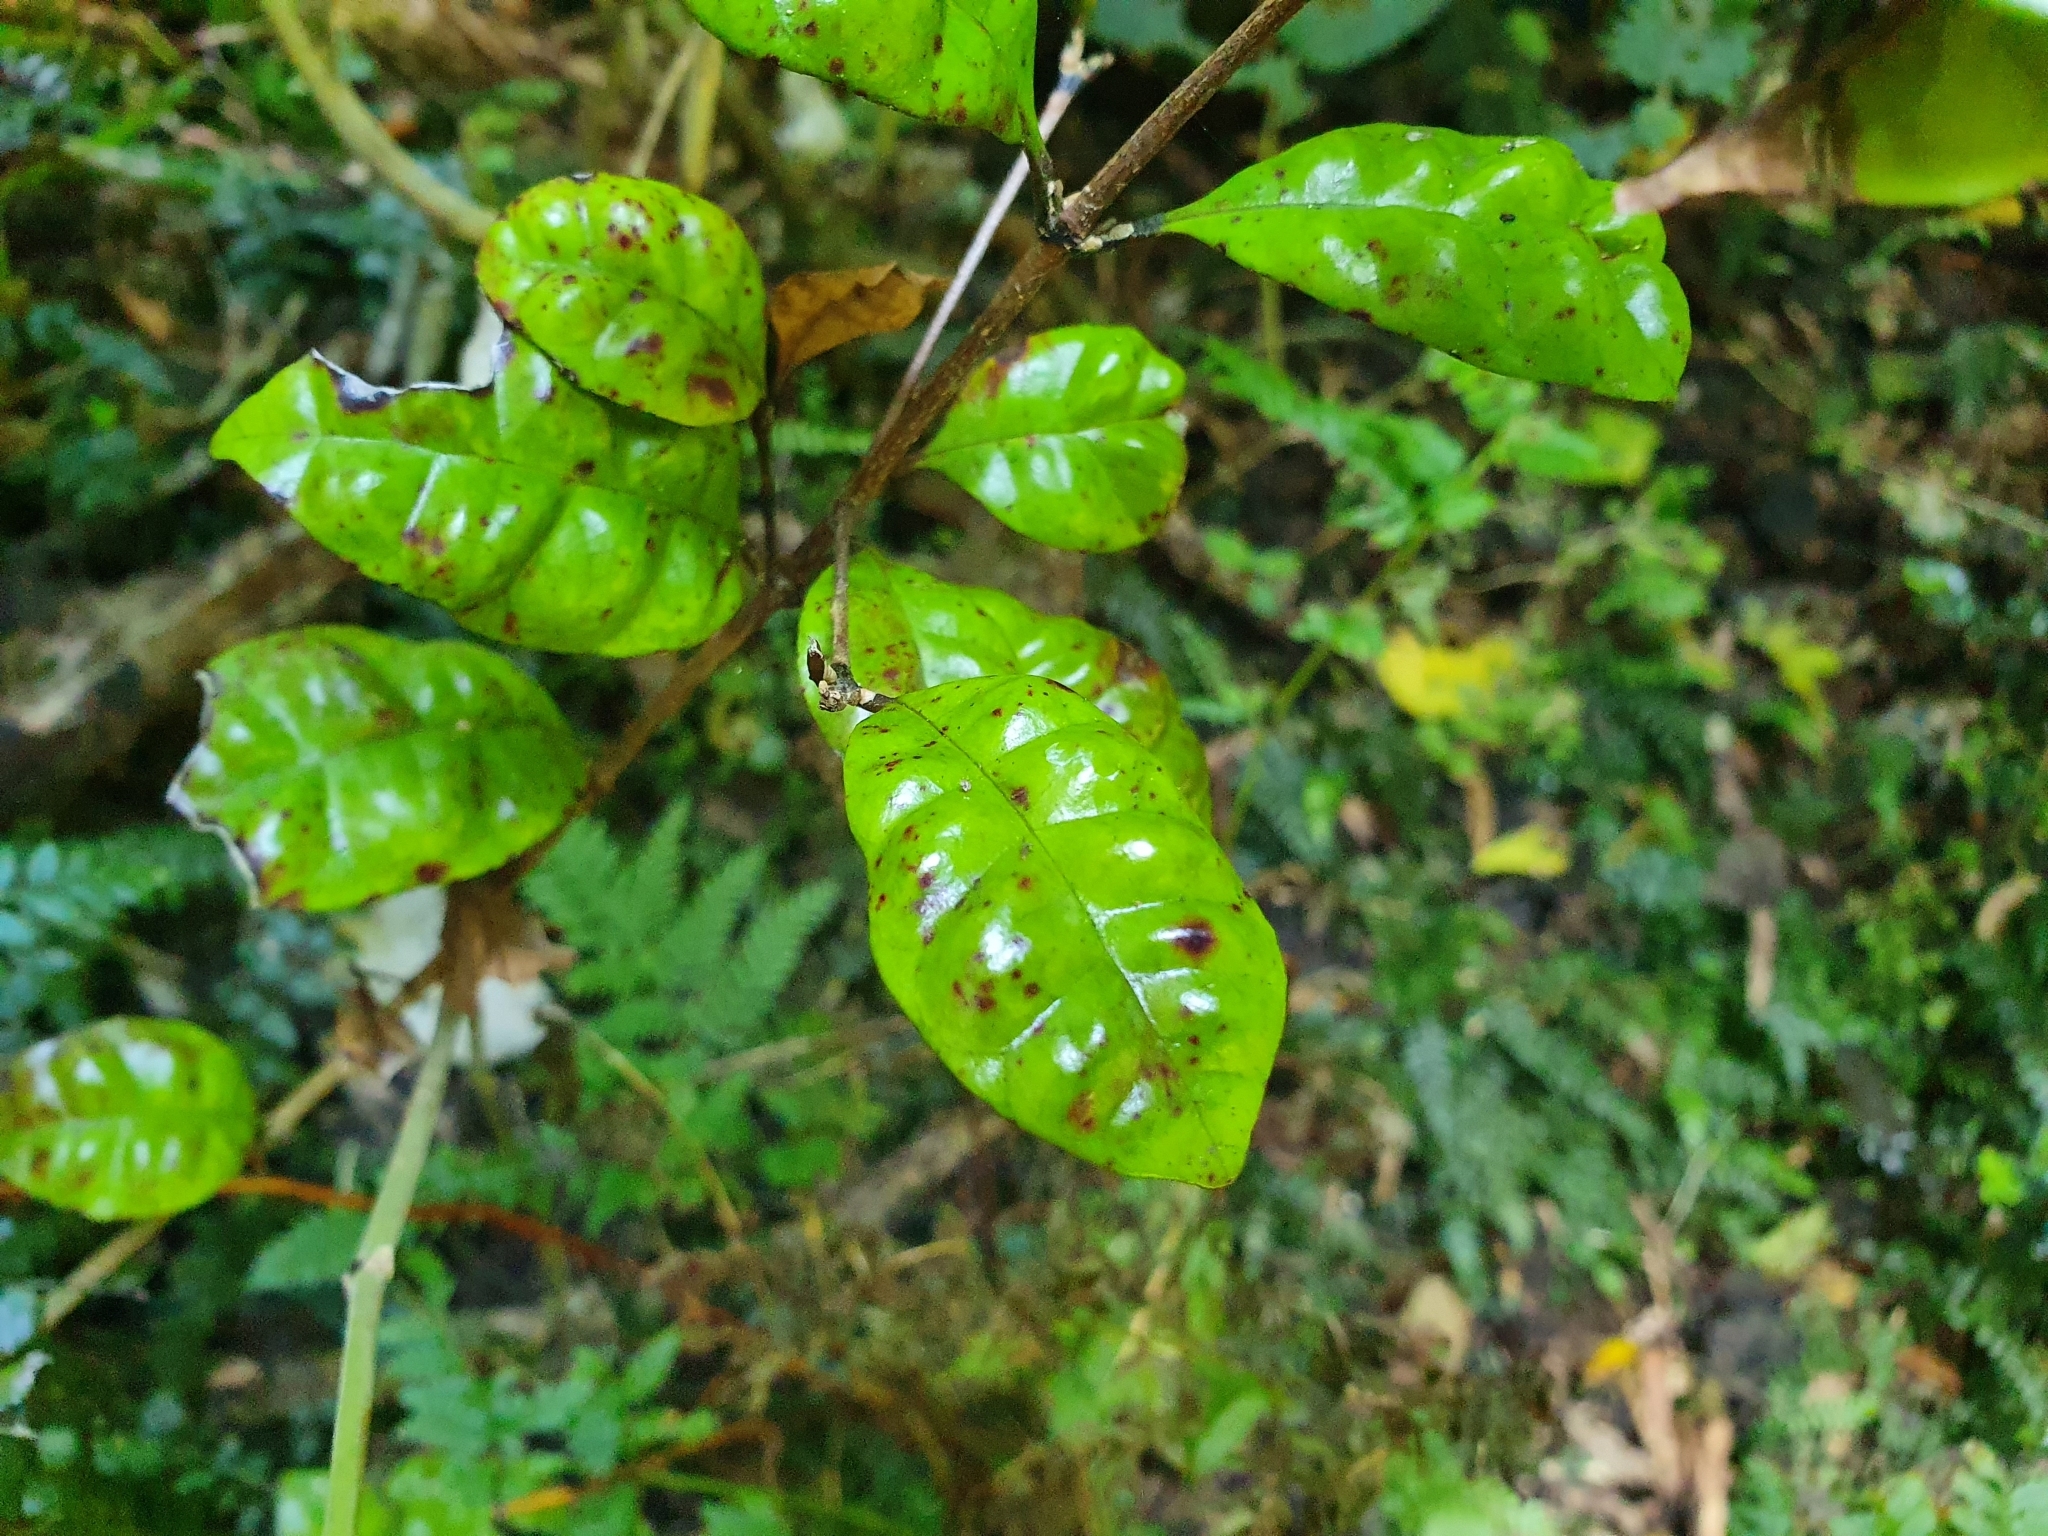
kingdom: Plantae
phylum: Tracheophyta
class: Magnoliopsida
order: Myrtales
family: Myrtaceae
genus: Lophomyrtus
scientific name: Lophomyrtus bullata
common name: Rama rama
